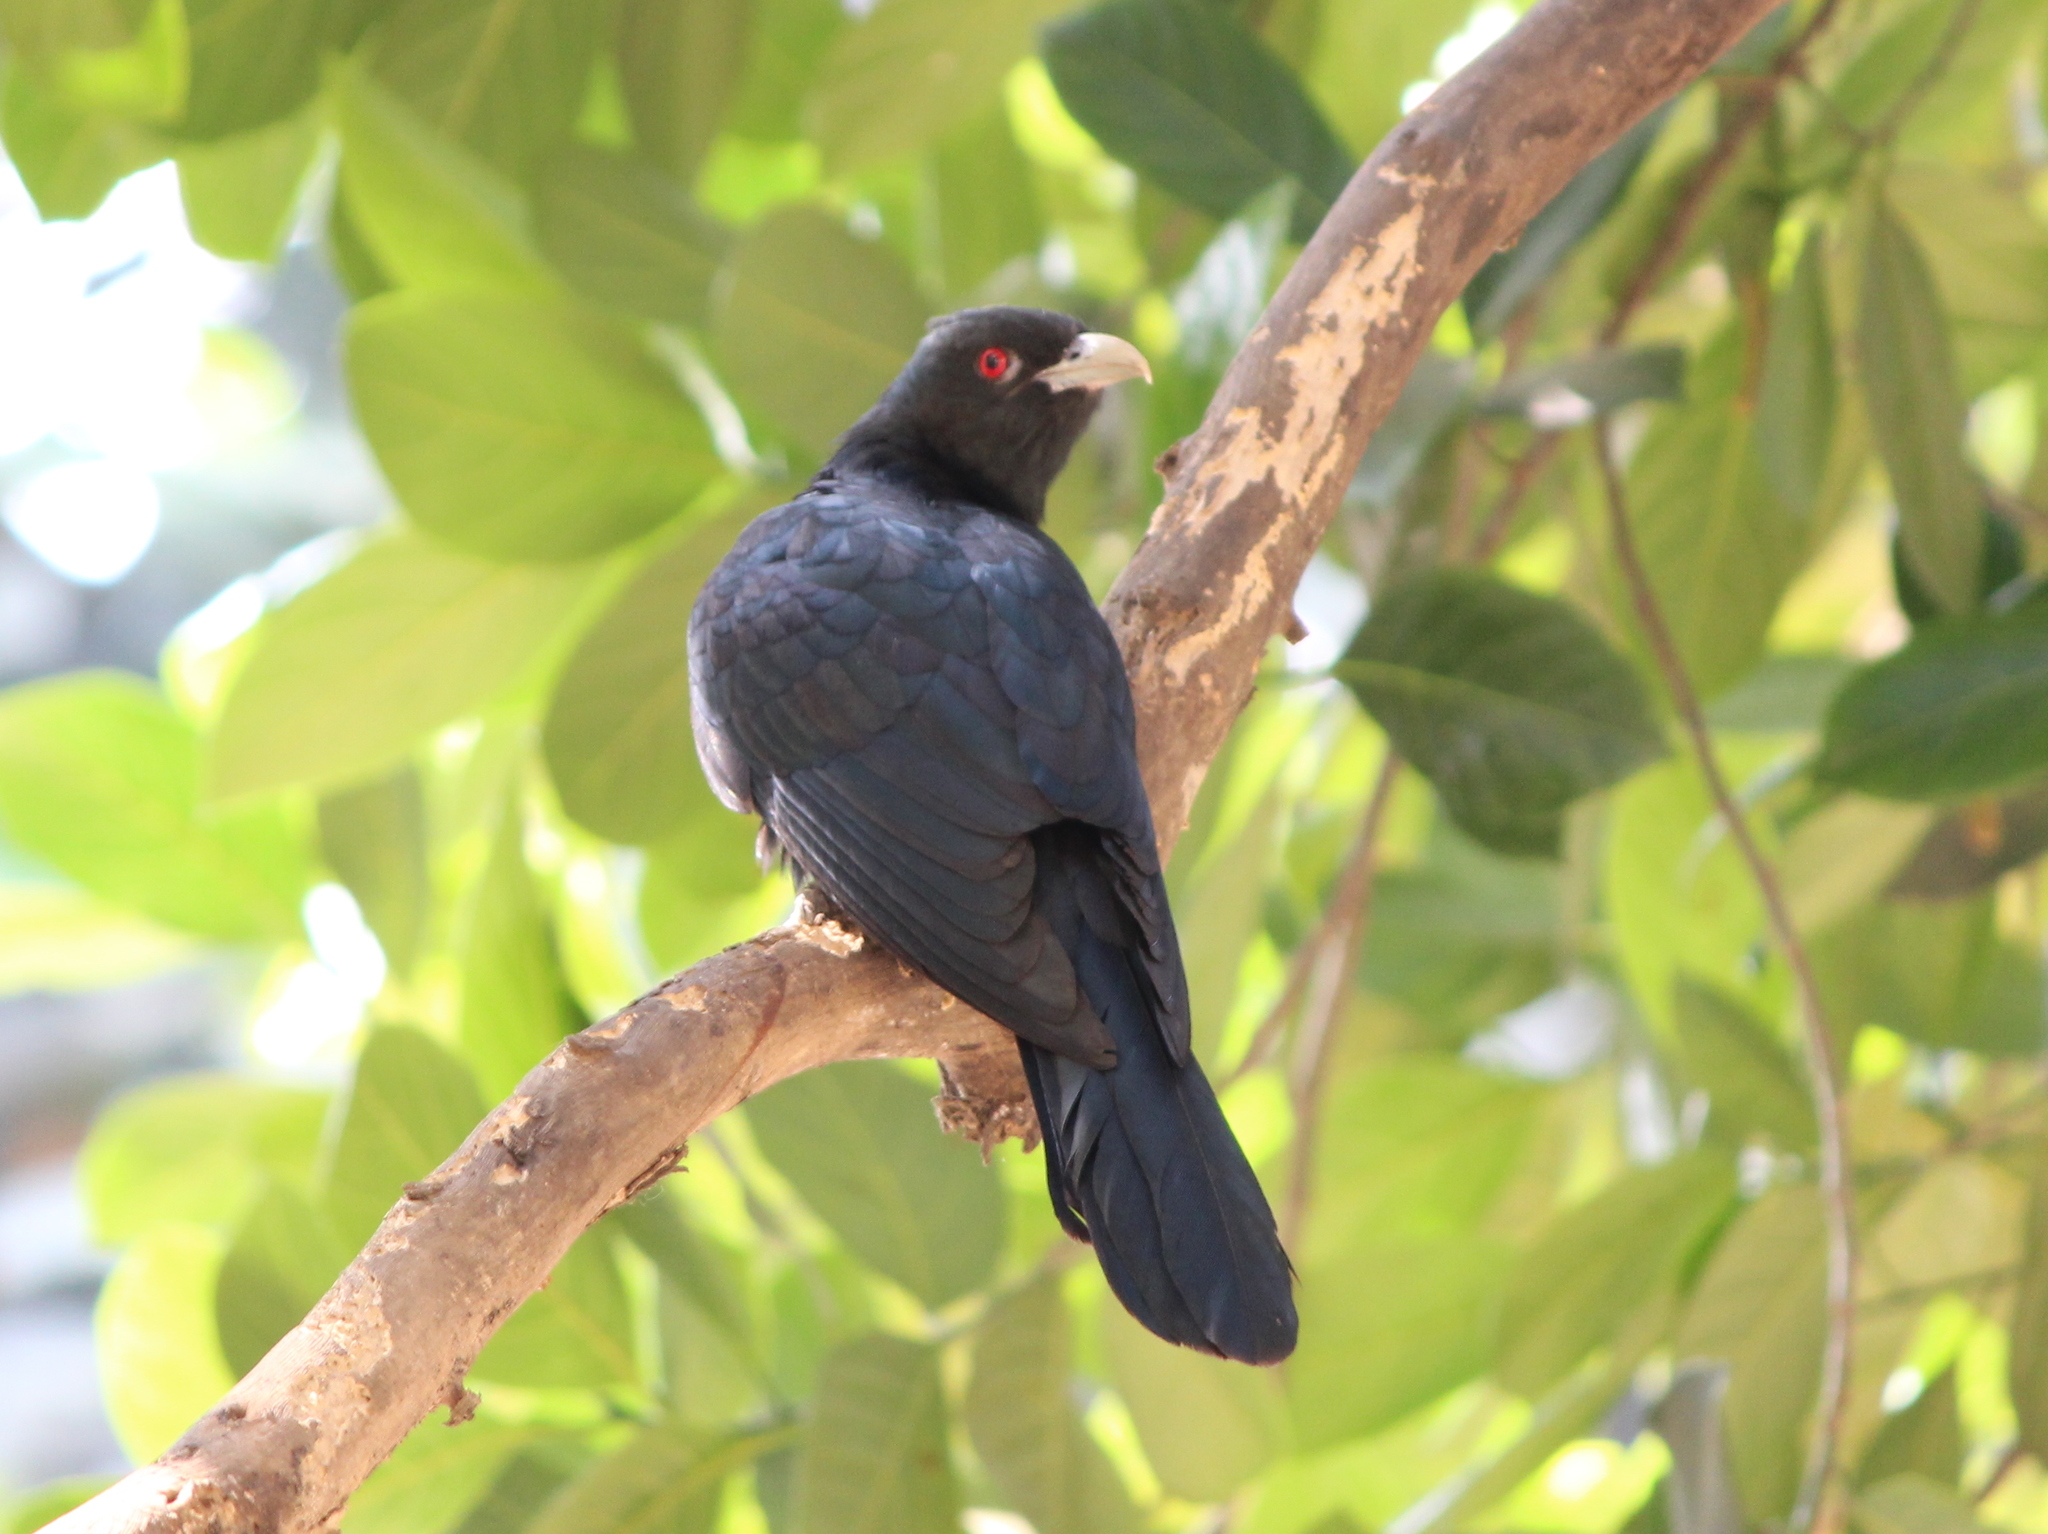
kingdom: Animalia
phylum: Chordata
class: Aves
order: Cuculiformes
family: Cuculidae
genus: Eudynamys
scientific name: Eudynamys scolopaceus
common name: Asian koel
